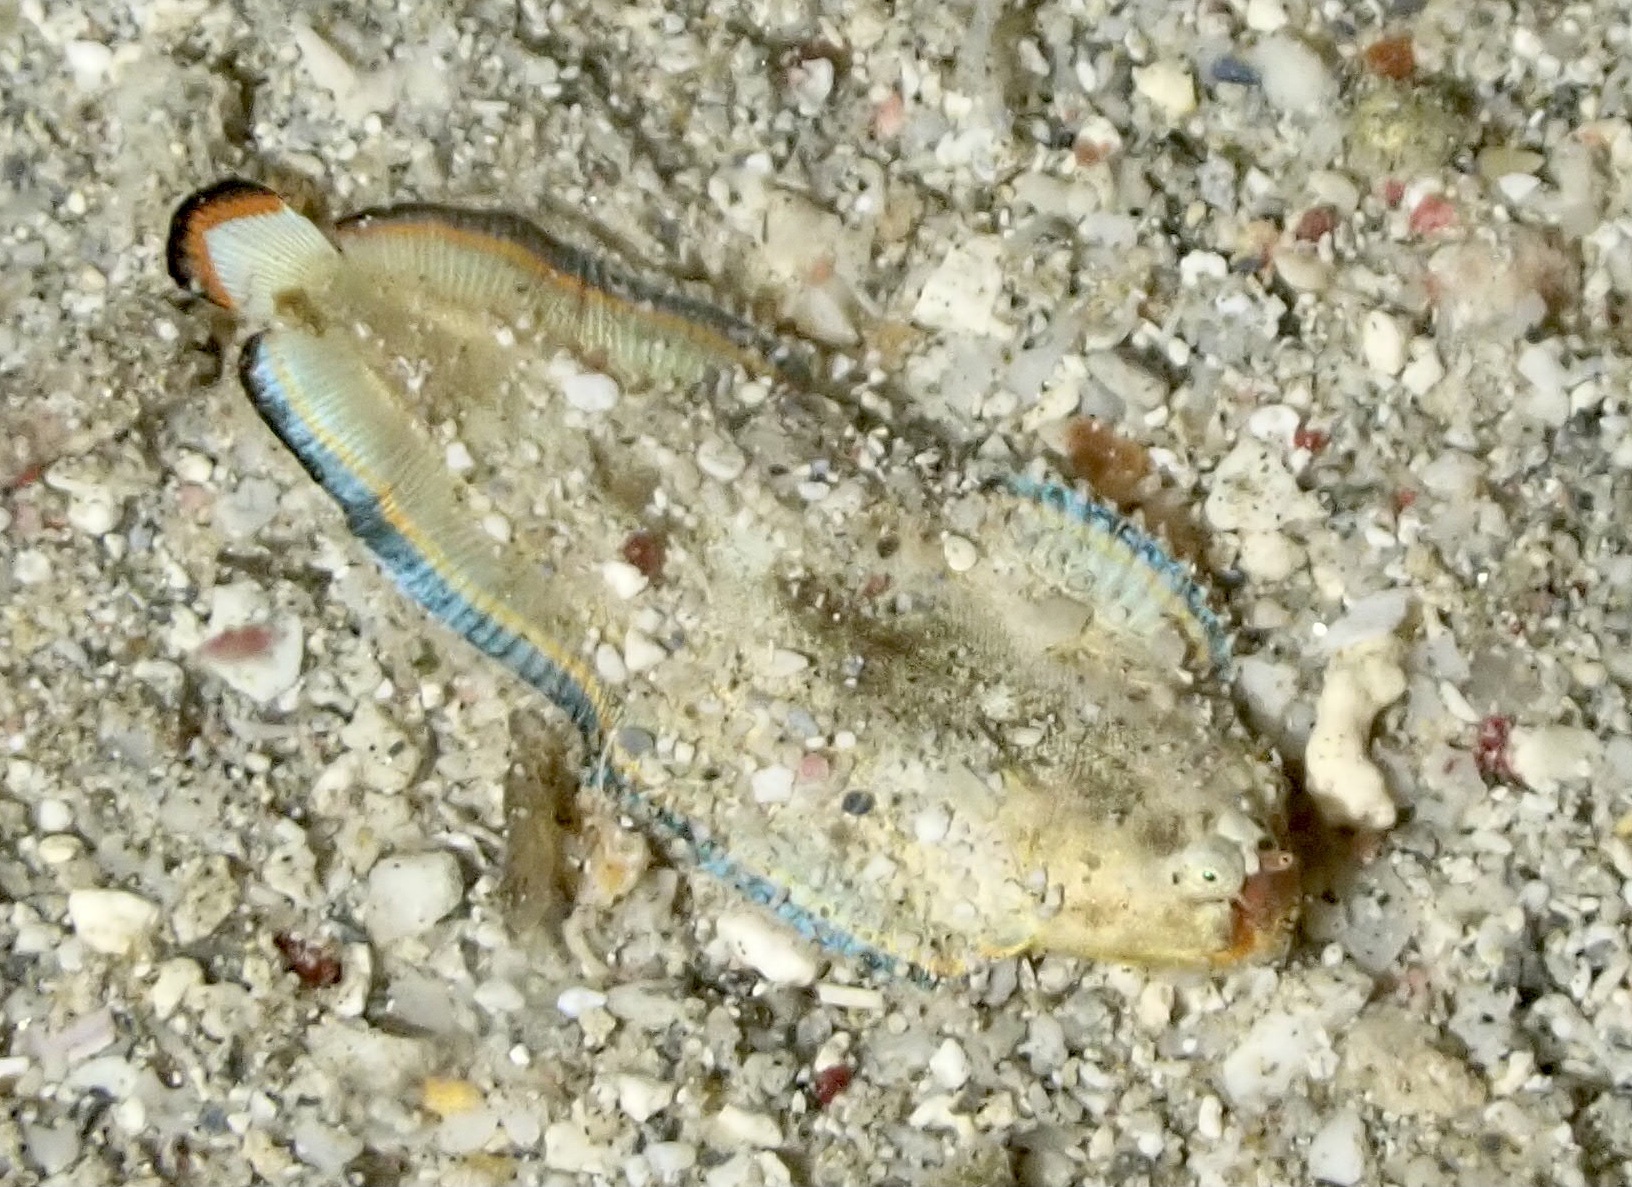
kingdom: Animalia
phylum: Chordata
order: Pleuronectiformes
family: Soleidae
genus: Soleichthys
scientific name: Soleichthys dori
